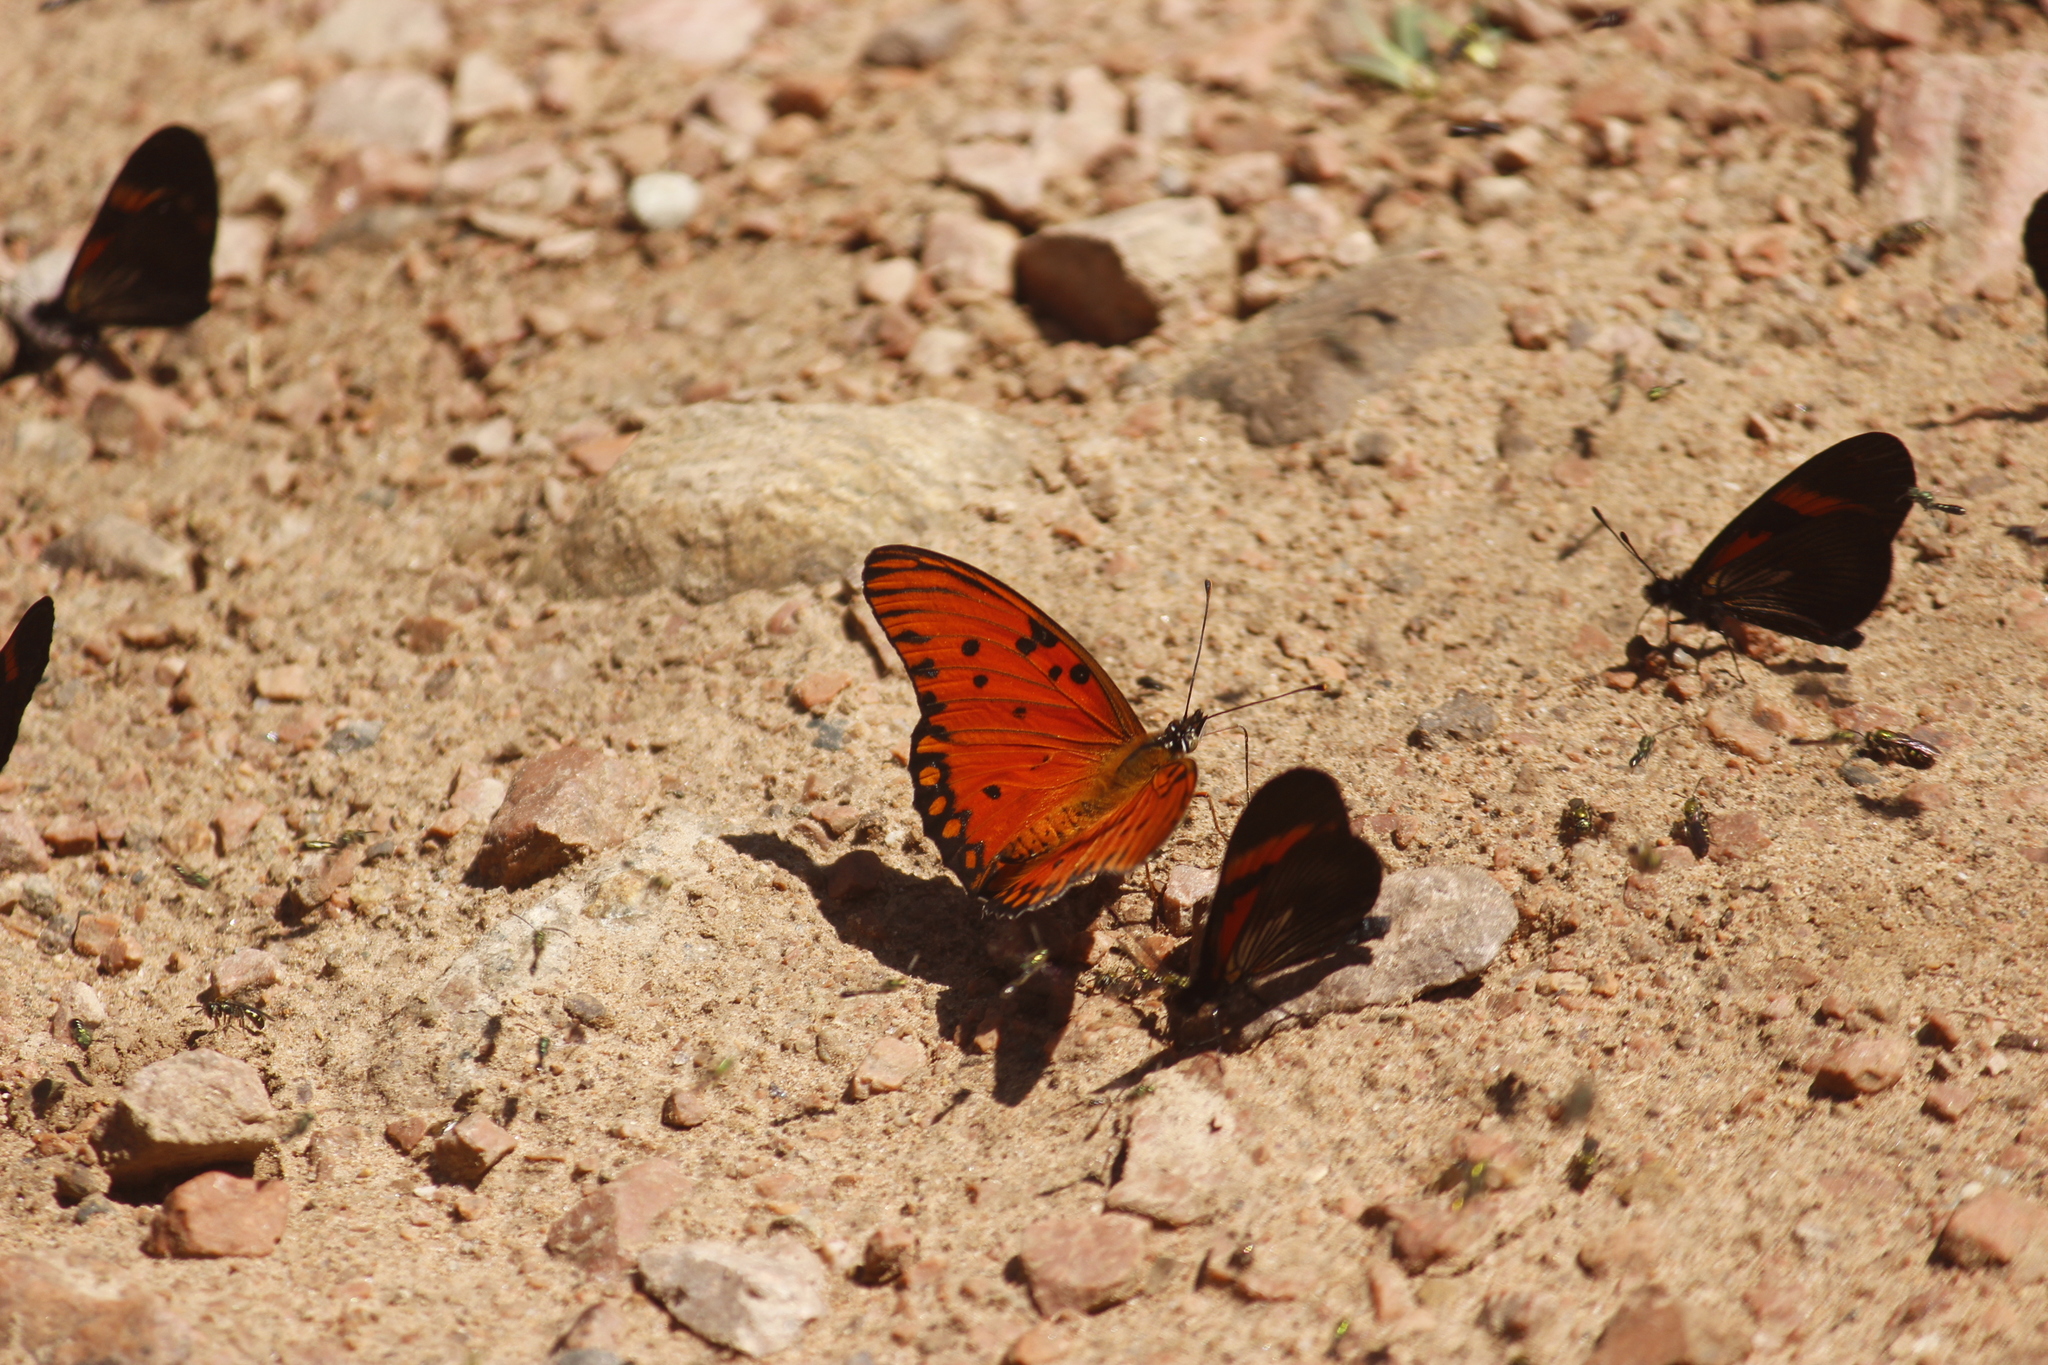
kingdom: Animalia
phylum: Arthropoda
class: Insecta
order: Lepidoptera
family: Nymphalidae
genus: Dione
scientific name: Dione vanillae
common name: Gulf fritillary
